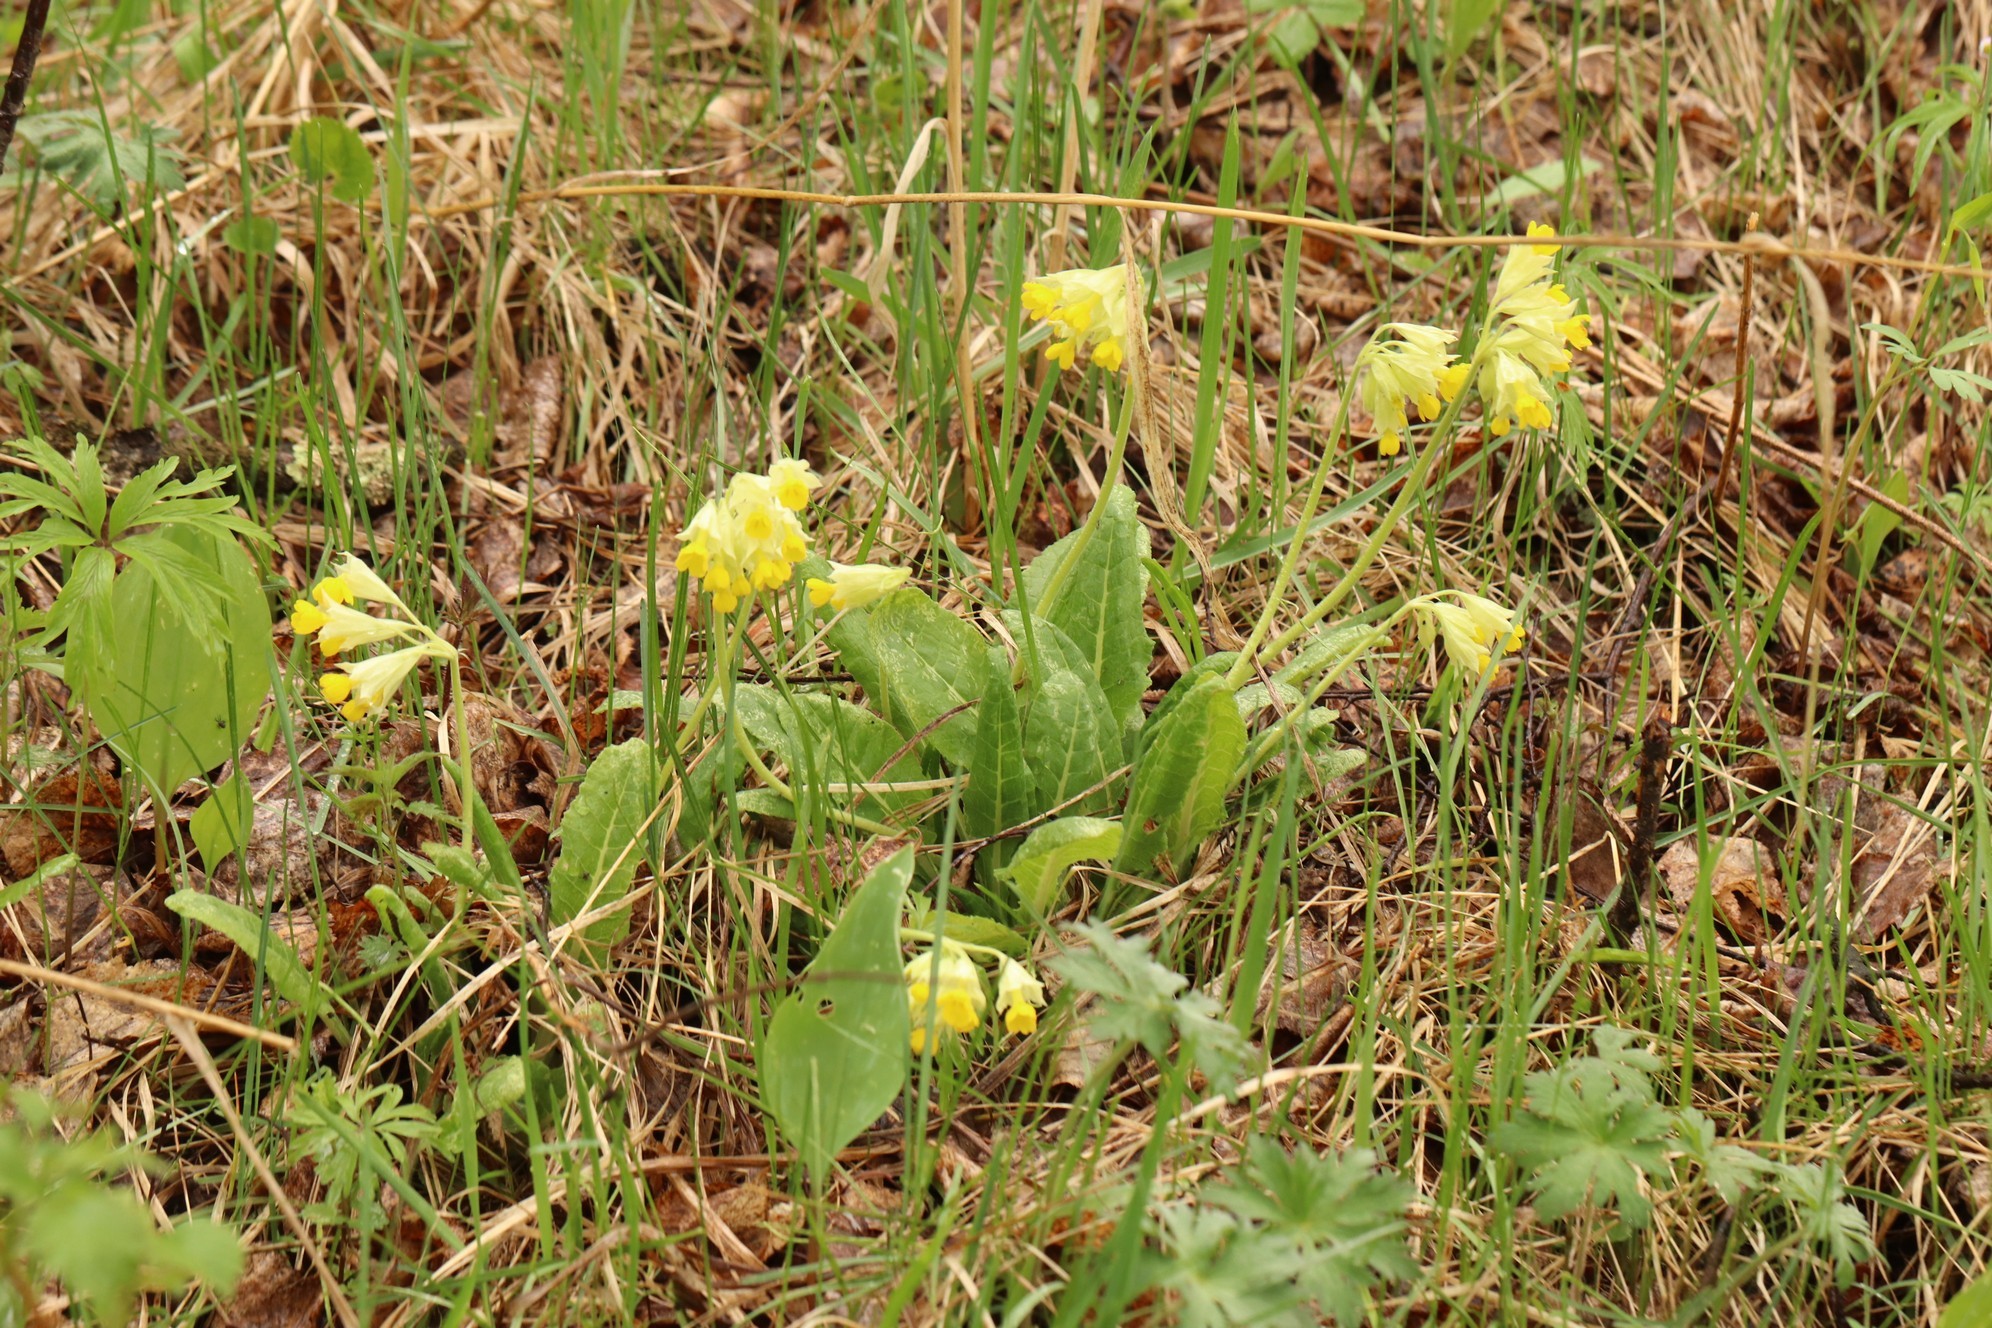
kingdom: Plantae
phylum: Tracheophyta
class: Magnoliopsida
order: Ericales
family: Primulaceae
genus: Primula
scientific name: Primula veris
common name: Cowslip
